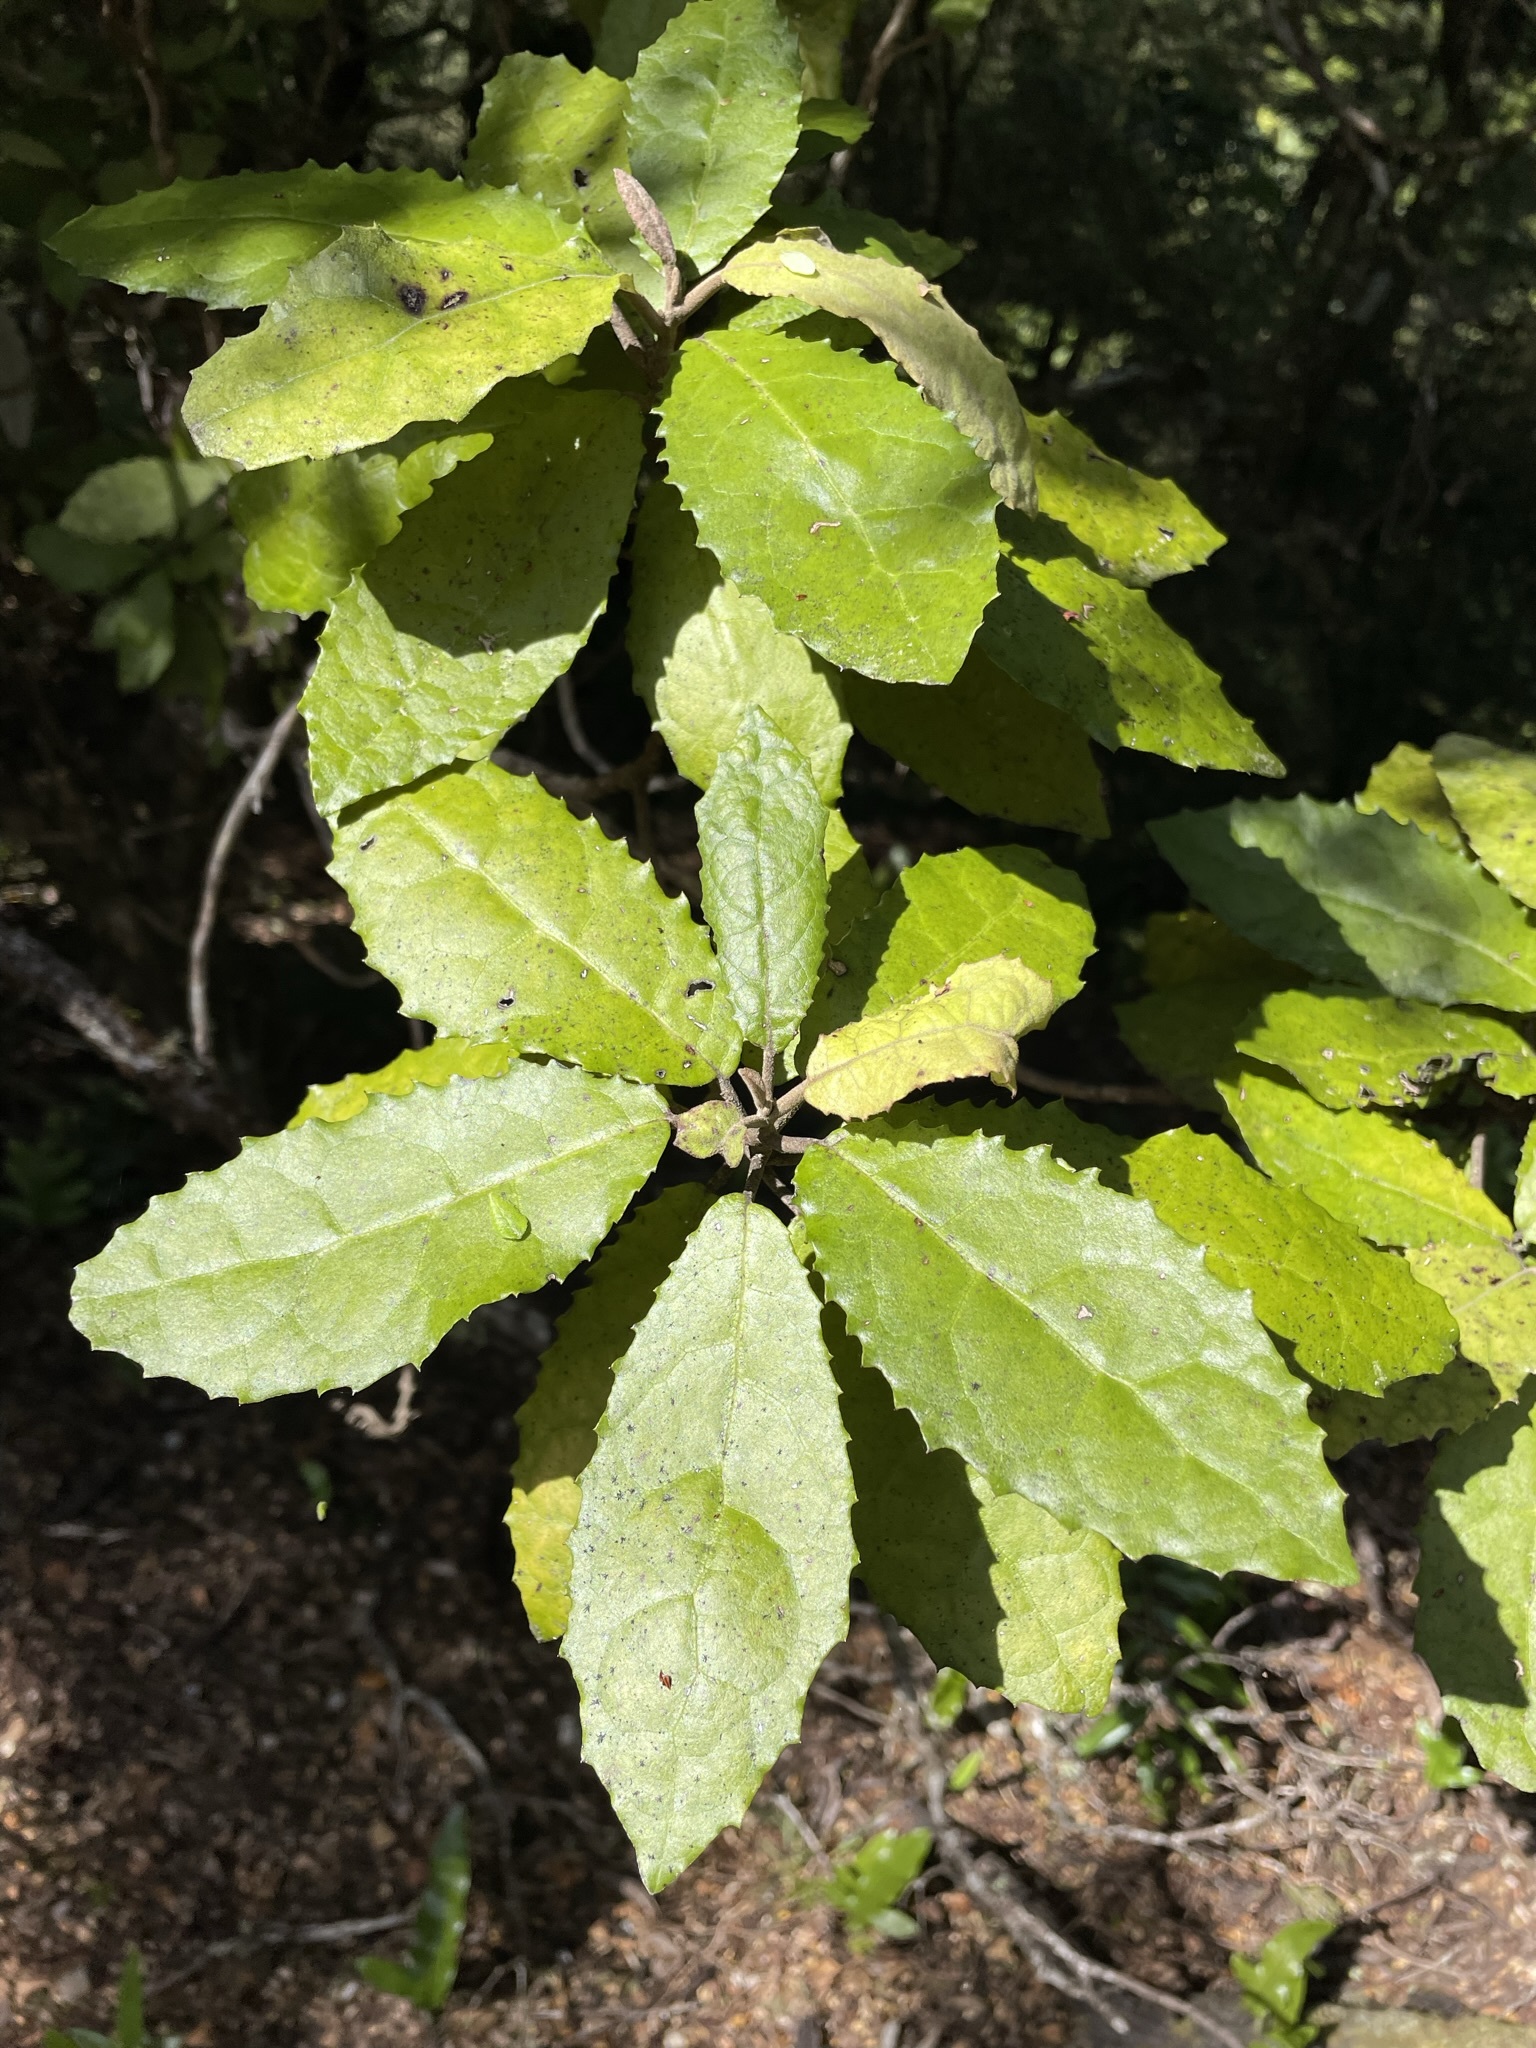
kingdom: Plantae
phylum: Tracheophyta
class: Magnoliopsida
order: Asterales
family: Asteraceae
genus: Olearia
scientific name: Olearia rani
